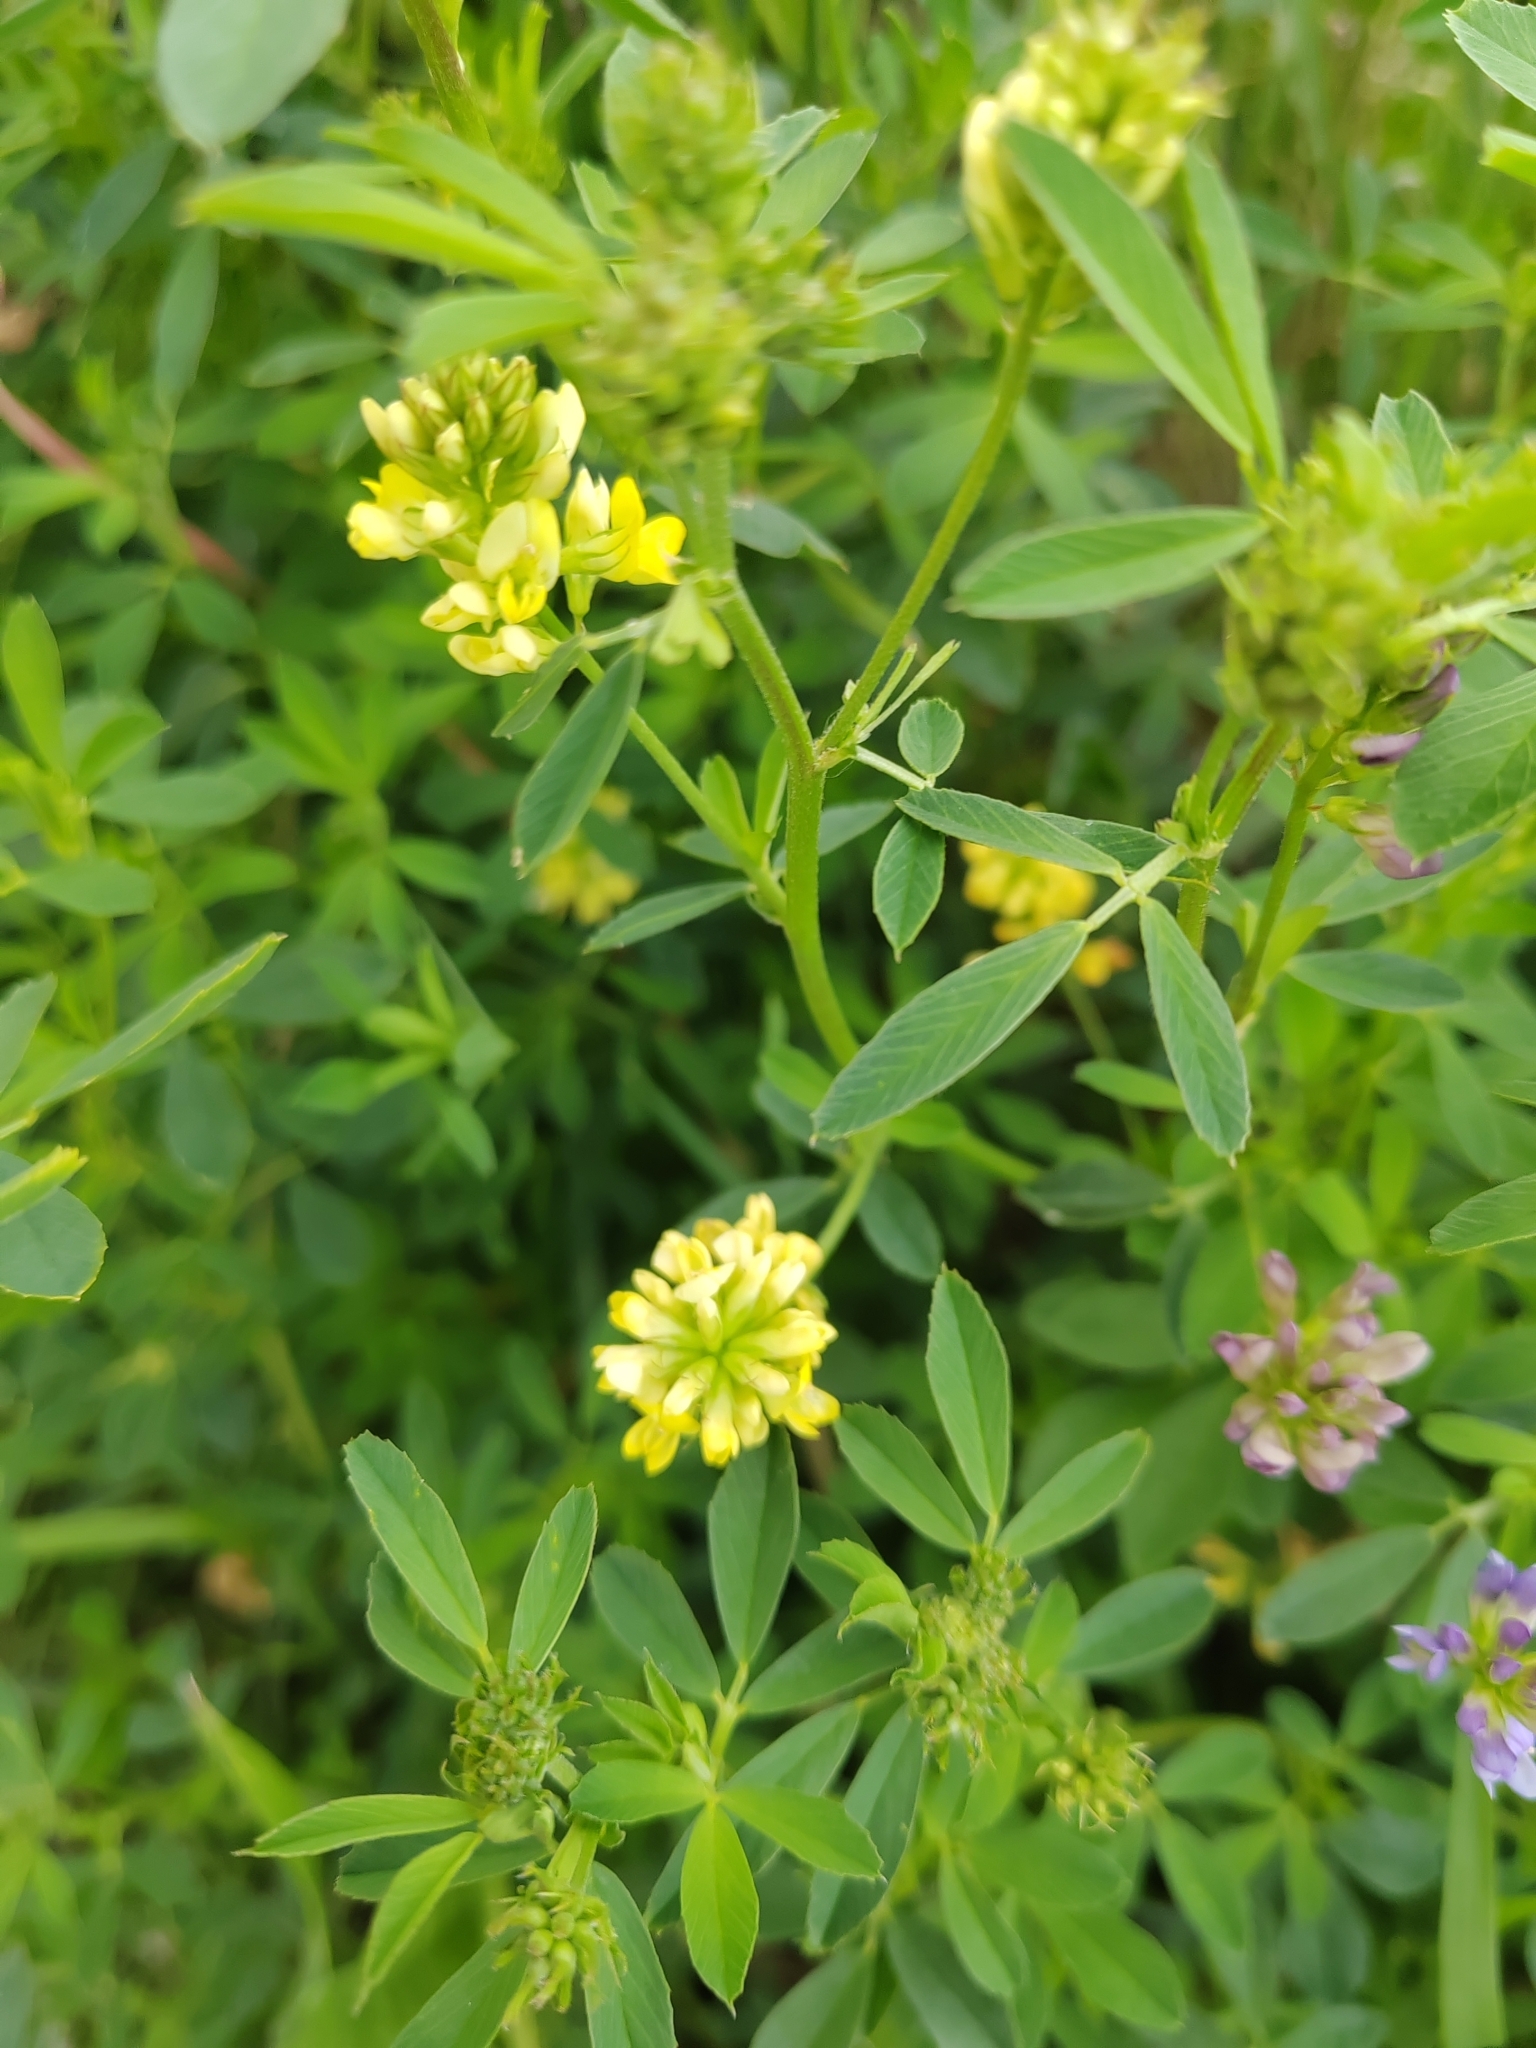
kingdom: Plantae
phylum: Tracheophyta
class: Magnoliopsida
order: Fabales
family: Fabaceae
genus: Medicago
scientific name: Medicago varia
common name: Sand lucerne
